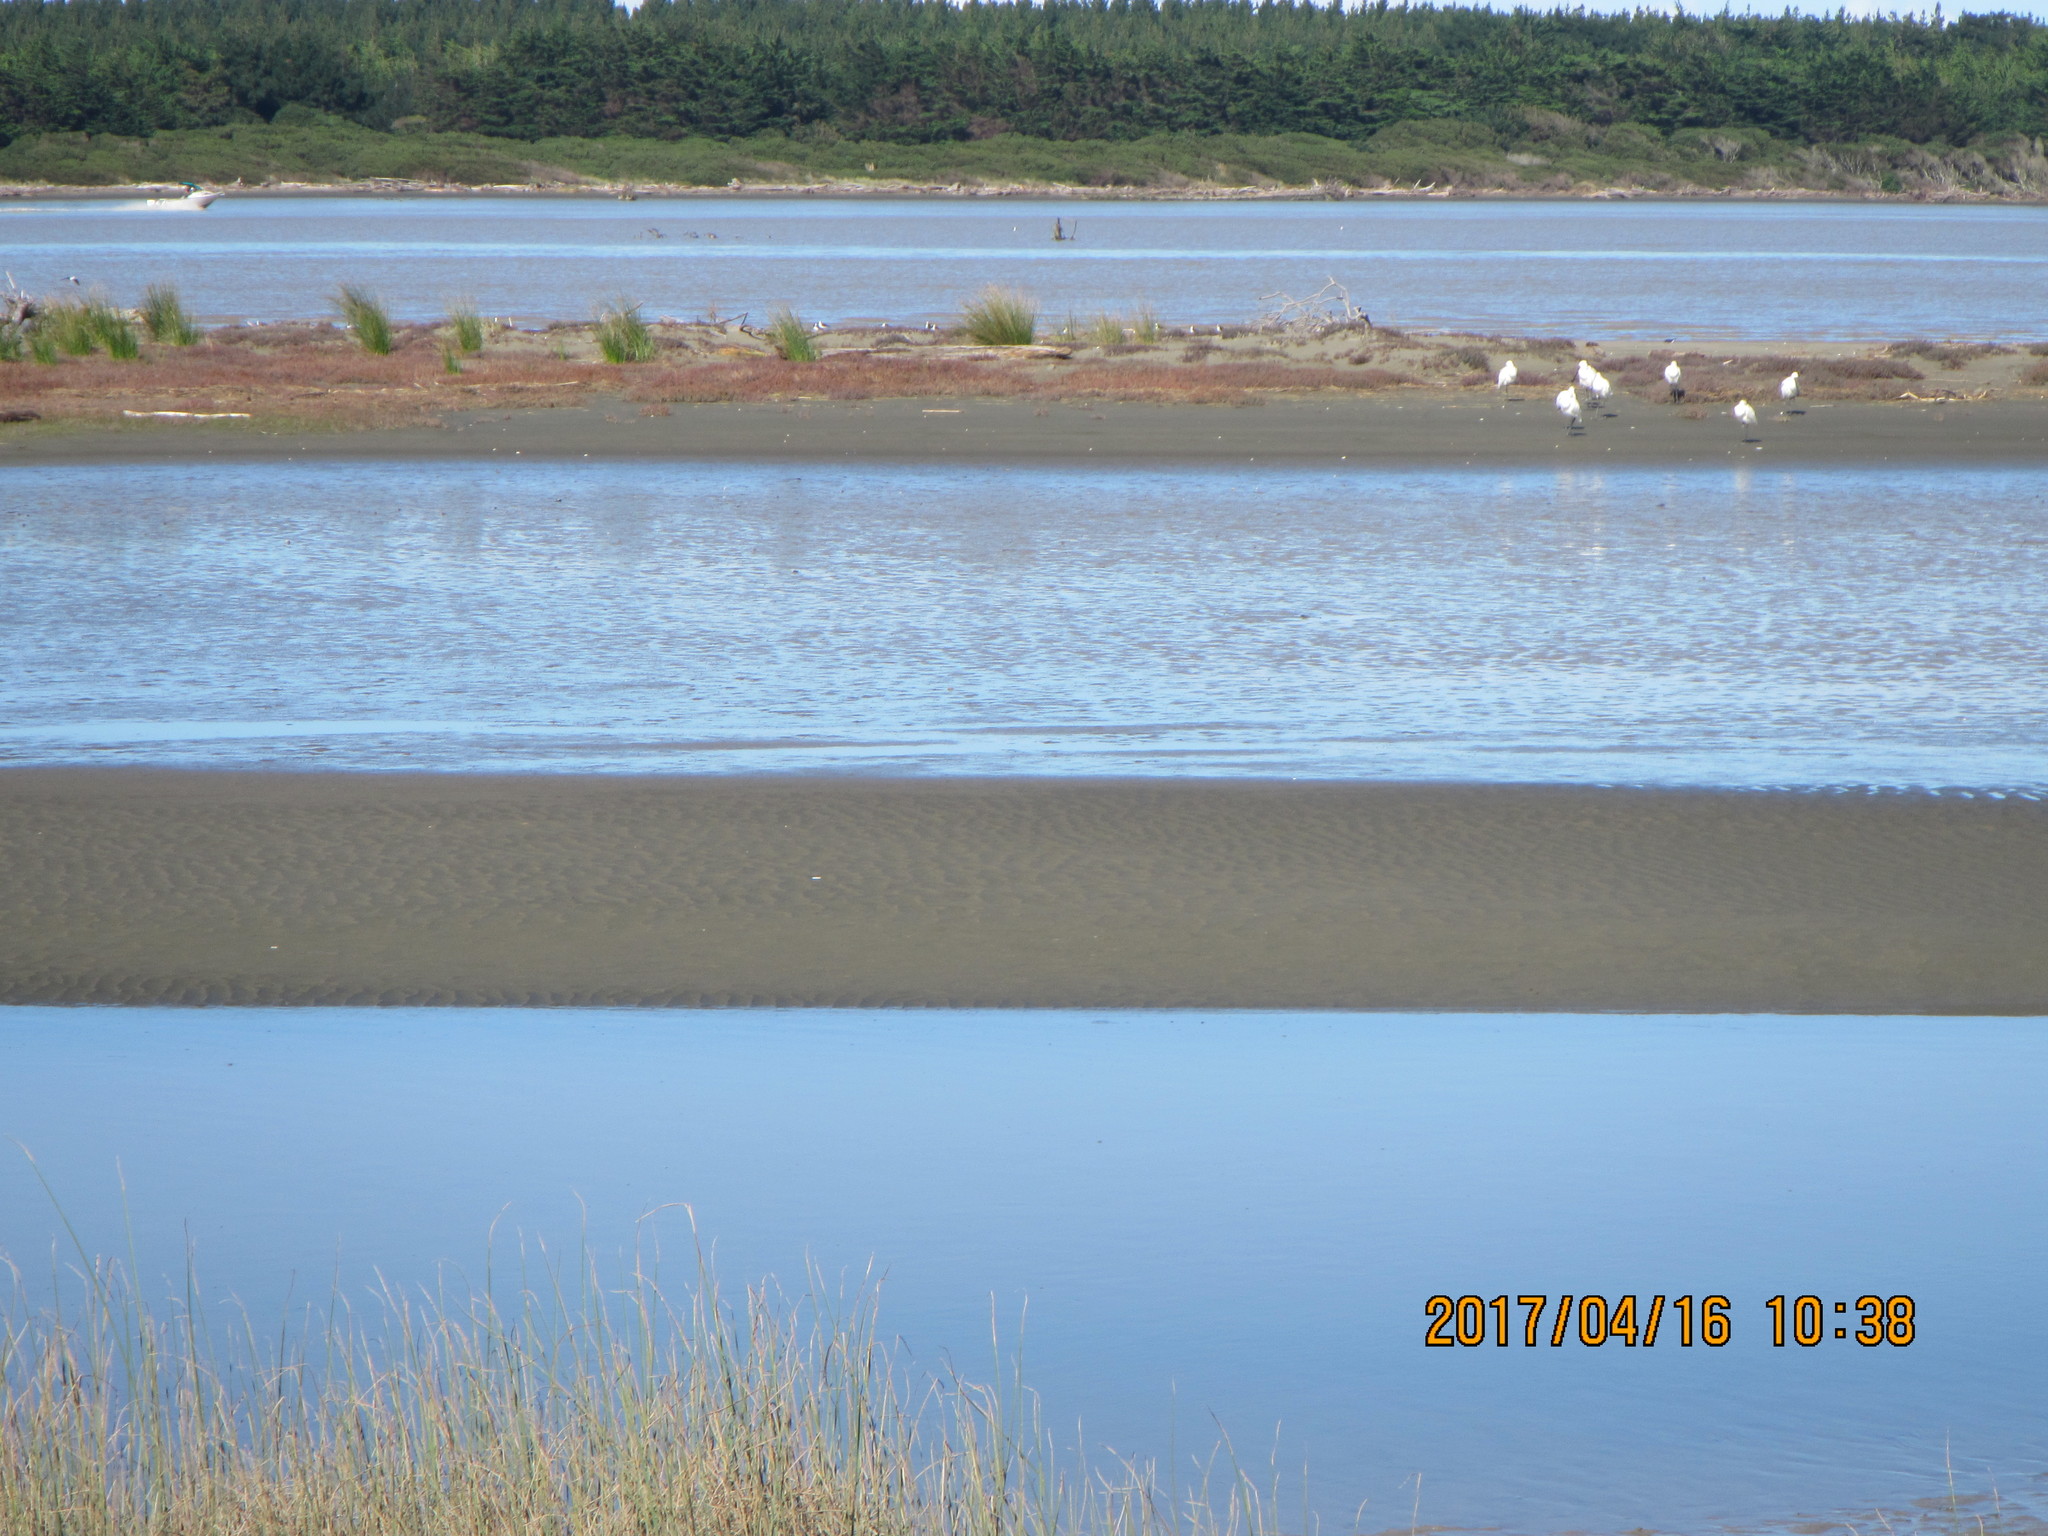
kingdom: Animalia
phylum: Chordata
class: Aves
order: Pelecaniformes
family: Threskiornithidae
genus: Platalea
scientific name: Platalea regia
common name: Royal spoonbill
